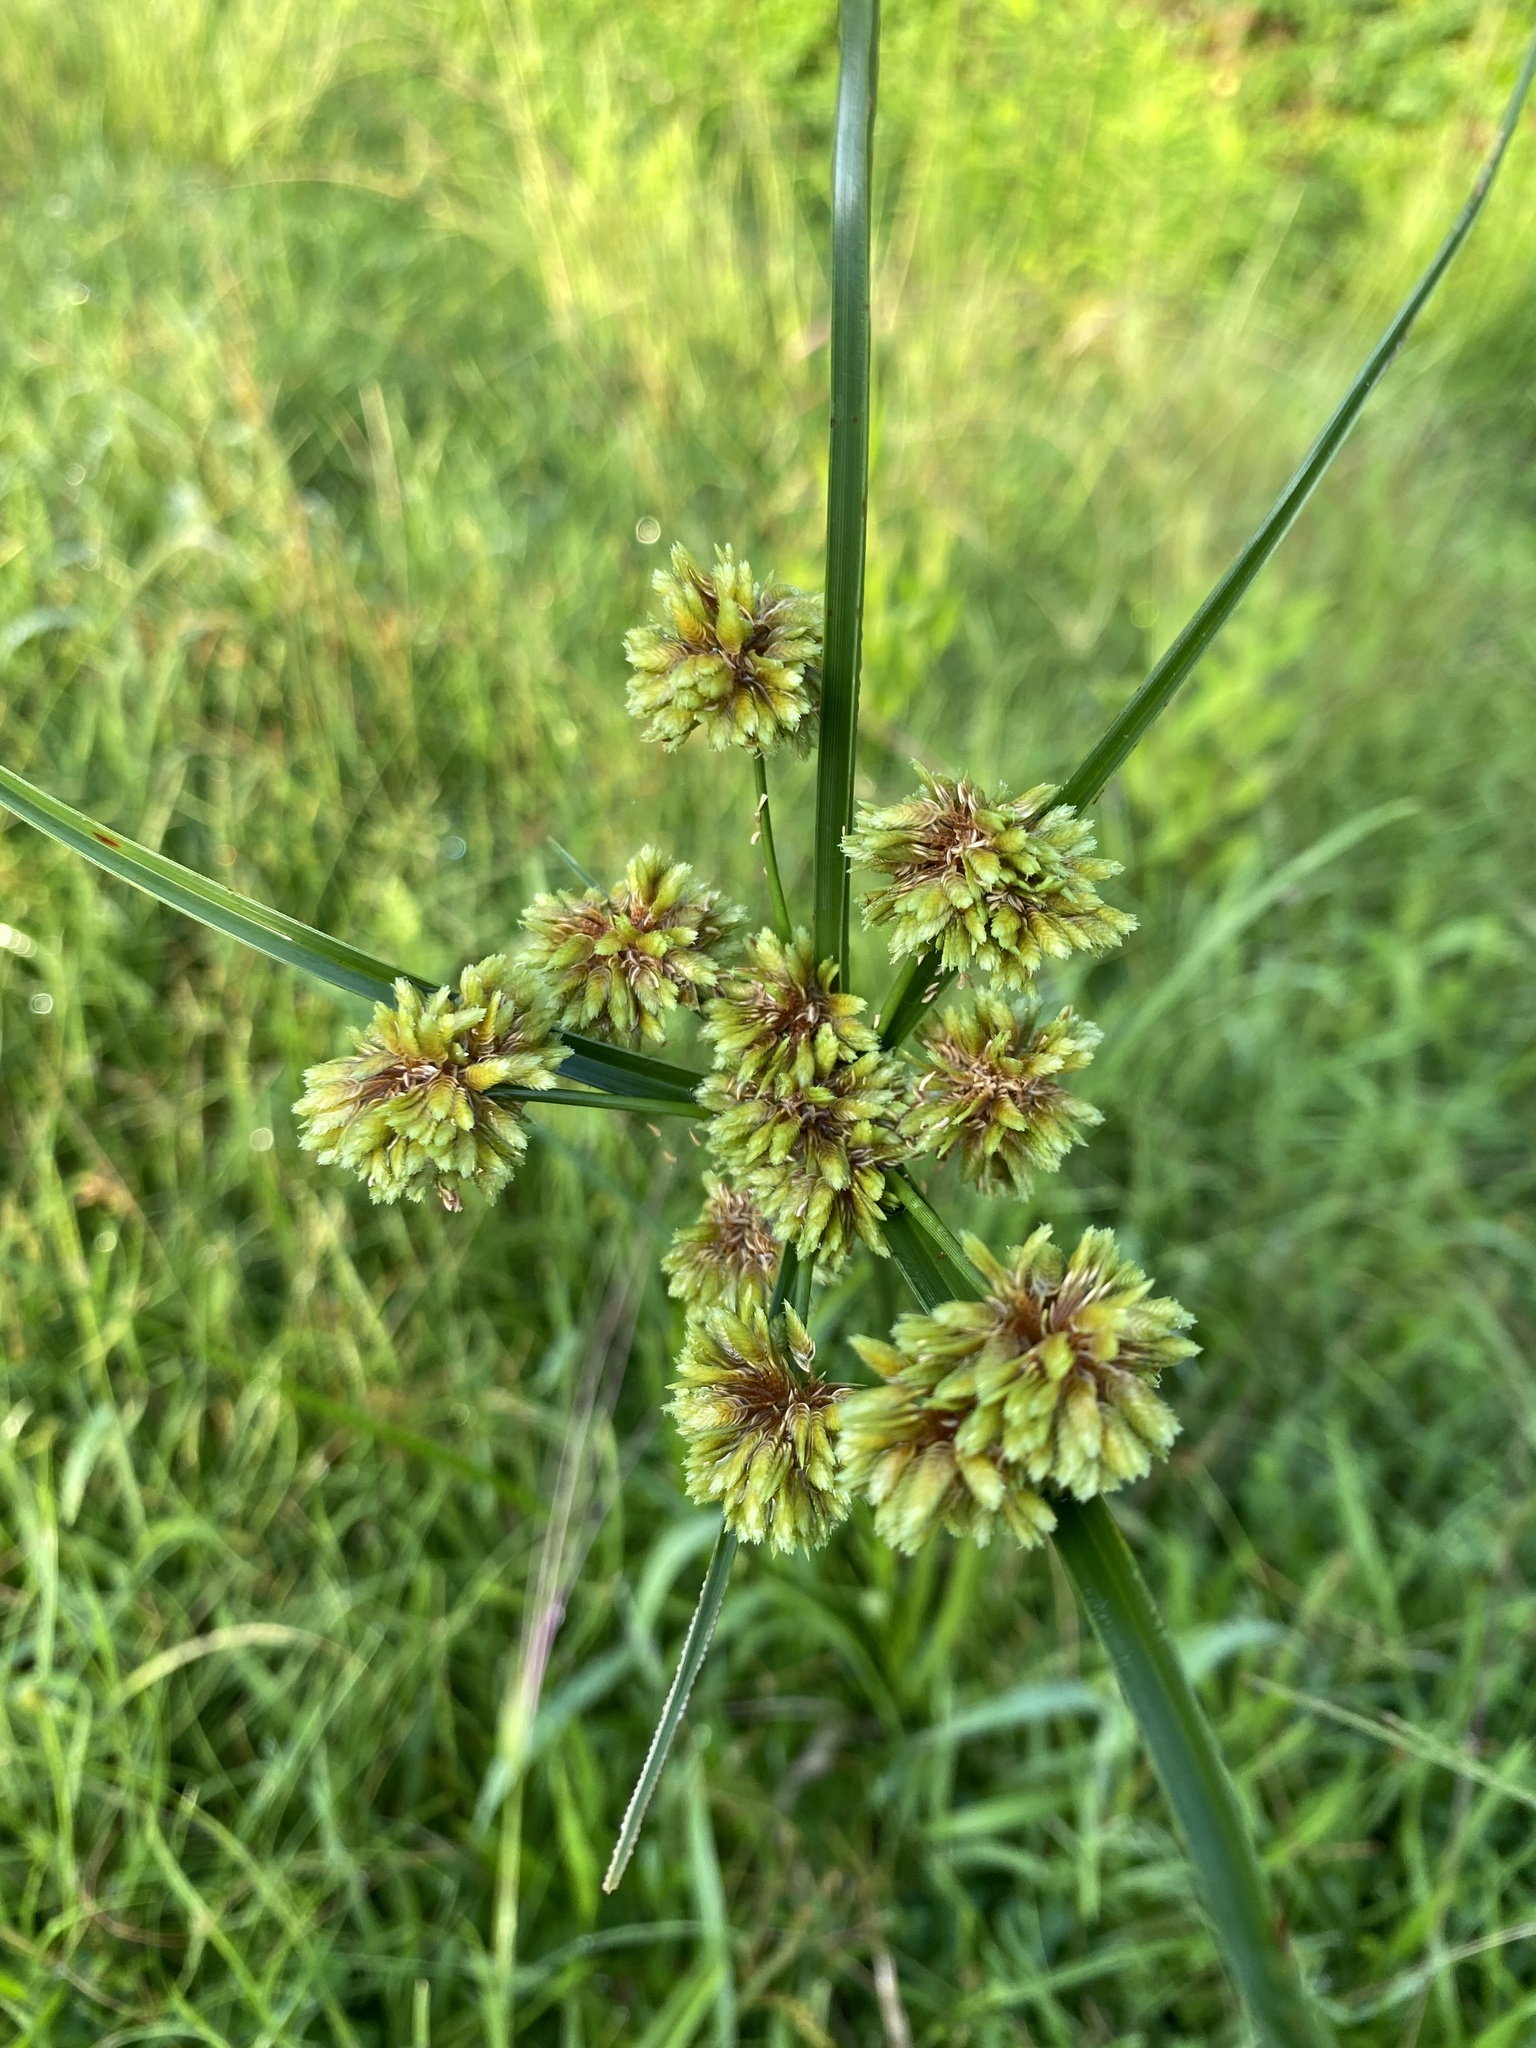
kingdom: Plantae
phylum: Tracheophyta
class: Liliopsida
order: Poales
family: Cyperaceae
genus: Cyperus
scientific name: Cyperus virens
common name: Green flatsedge
